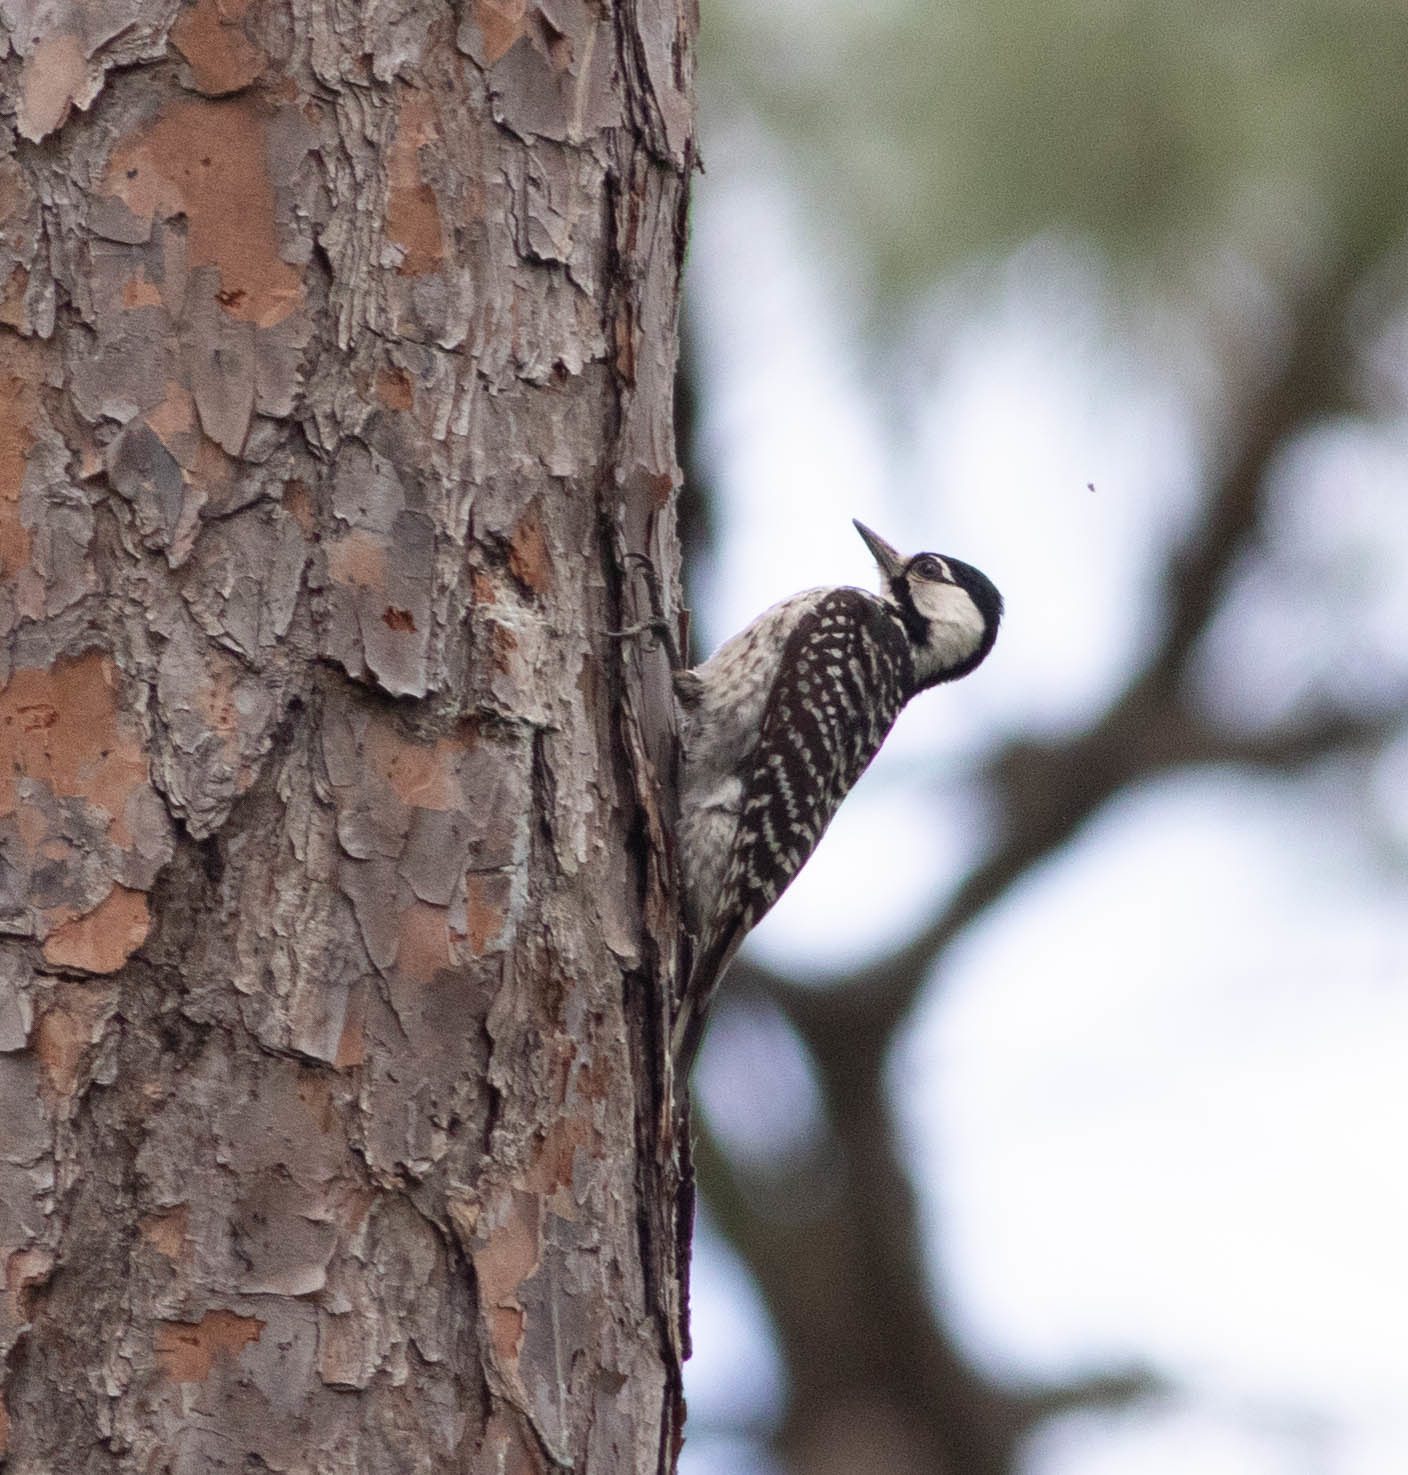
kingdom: Animalia
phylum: Chordata
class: Aves
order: Piciformes
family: Picidae
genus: Leuconotopicus
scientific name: Leuconotopicus borealis
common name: Red-cockaded woodpecker
